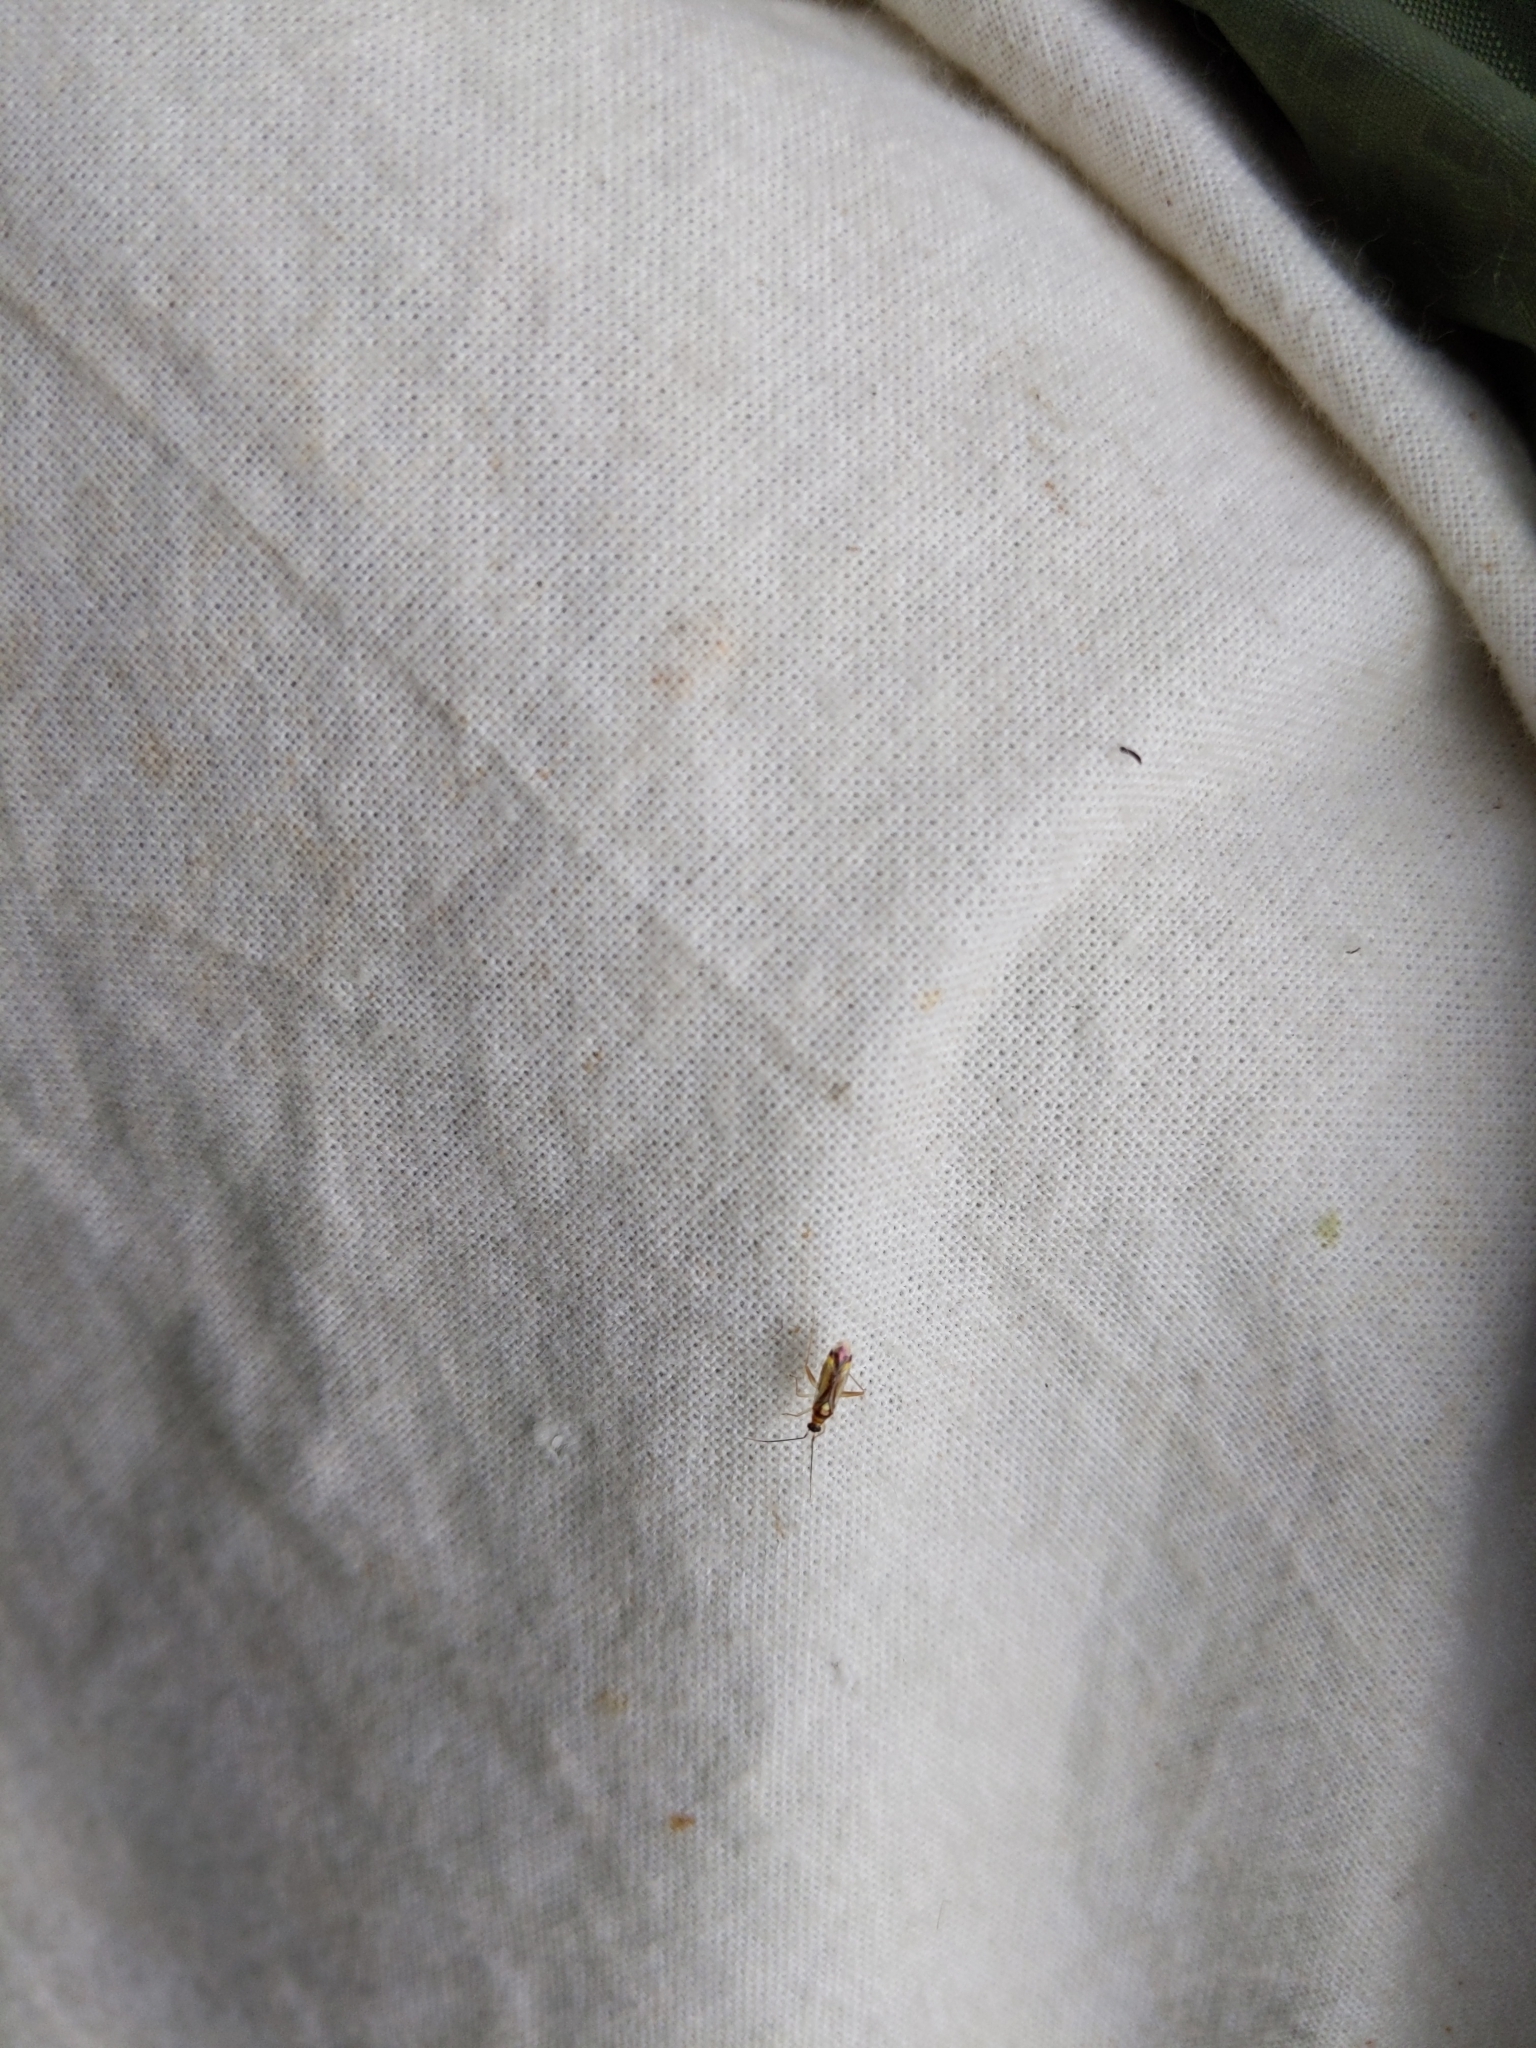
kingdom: Animalia
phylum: Arthropoda
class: Insecta
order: Hemiptera
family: Miridae
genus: Campyloneura
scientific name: Campyloneura virgula
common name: Predatory bug
